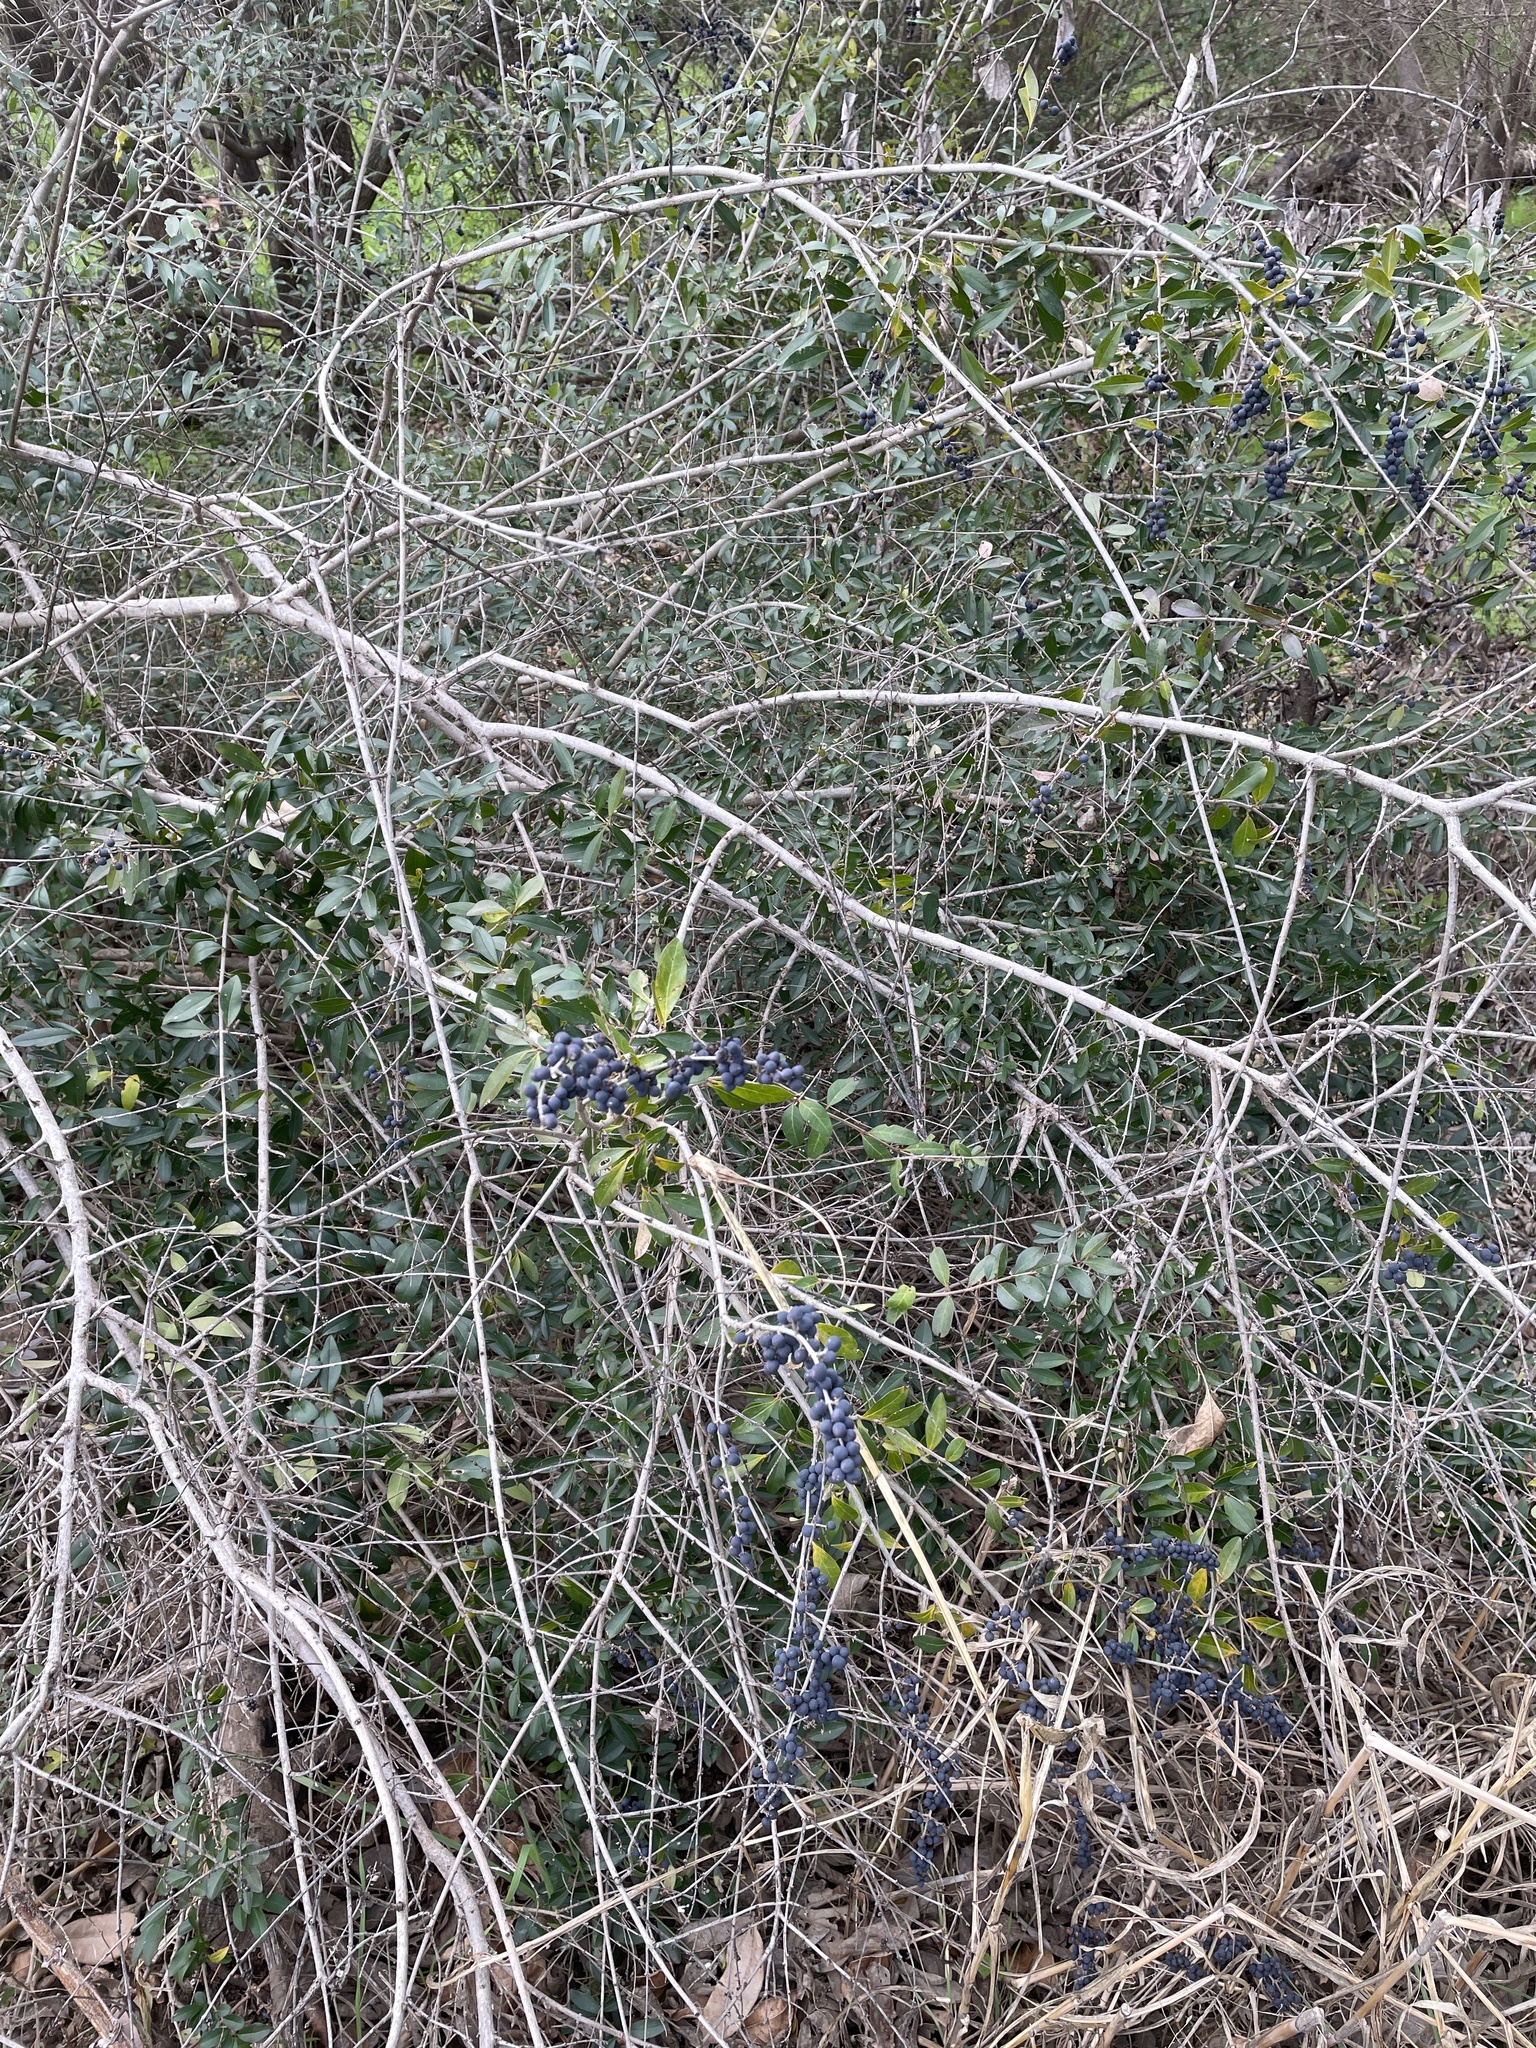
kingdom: Plantae
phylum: Tracheophyta
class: Magnoliopsida
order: Lamiales
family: Oleaceae
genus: Ligustrum
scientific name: Ligustrum quihoui
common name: Waxyleaf privet
